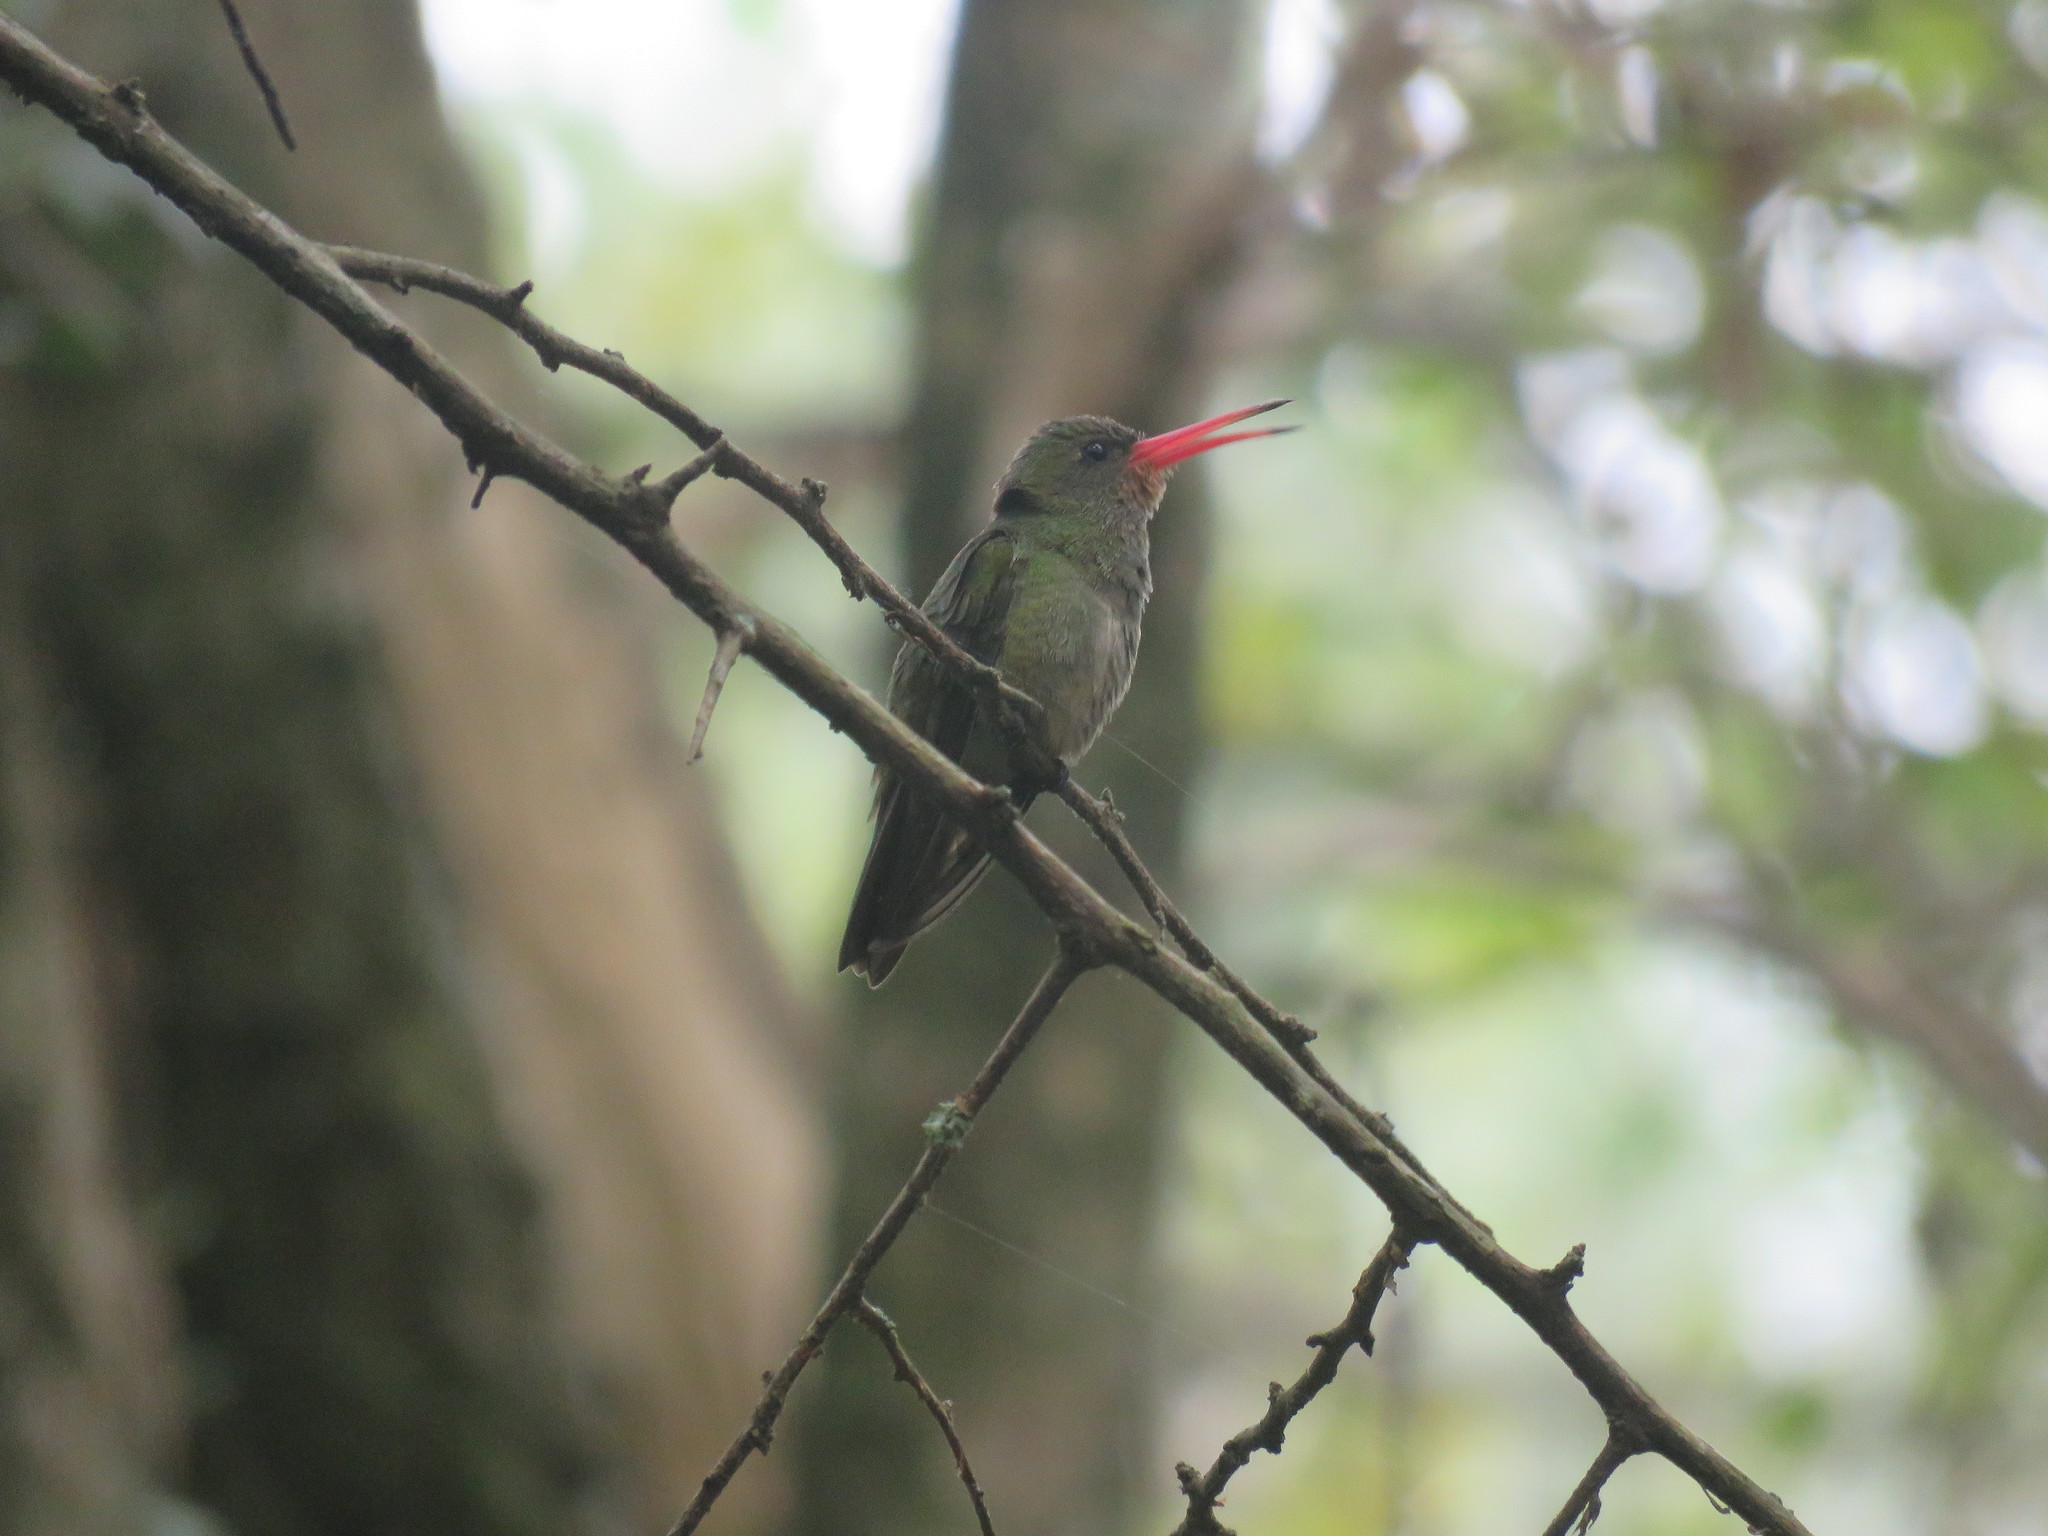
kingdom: Animalia
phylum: Chordata
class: Aves
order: Apodiformes
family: Trochilidae
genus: Hylocharis
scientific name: Hylocharis chrysura
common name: Gilded sapphire
